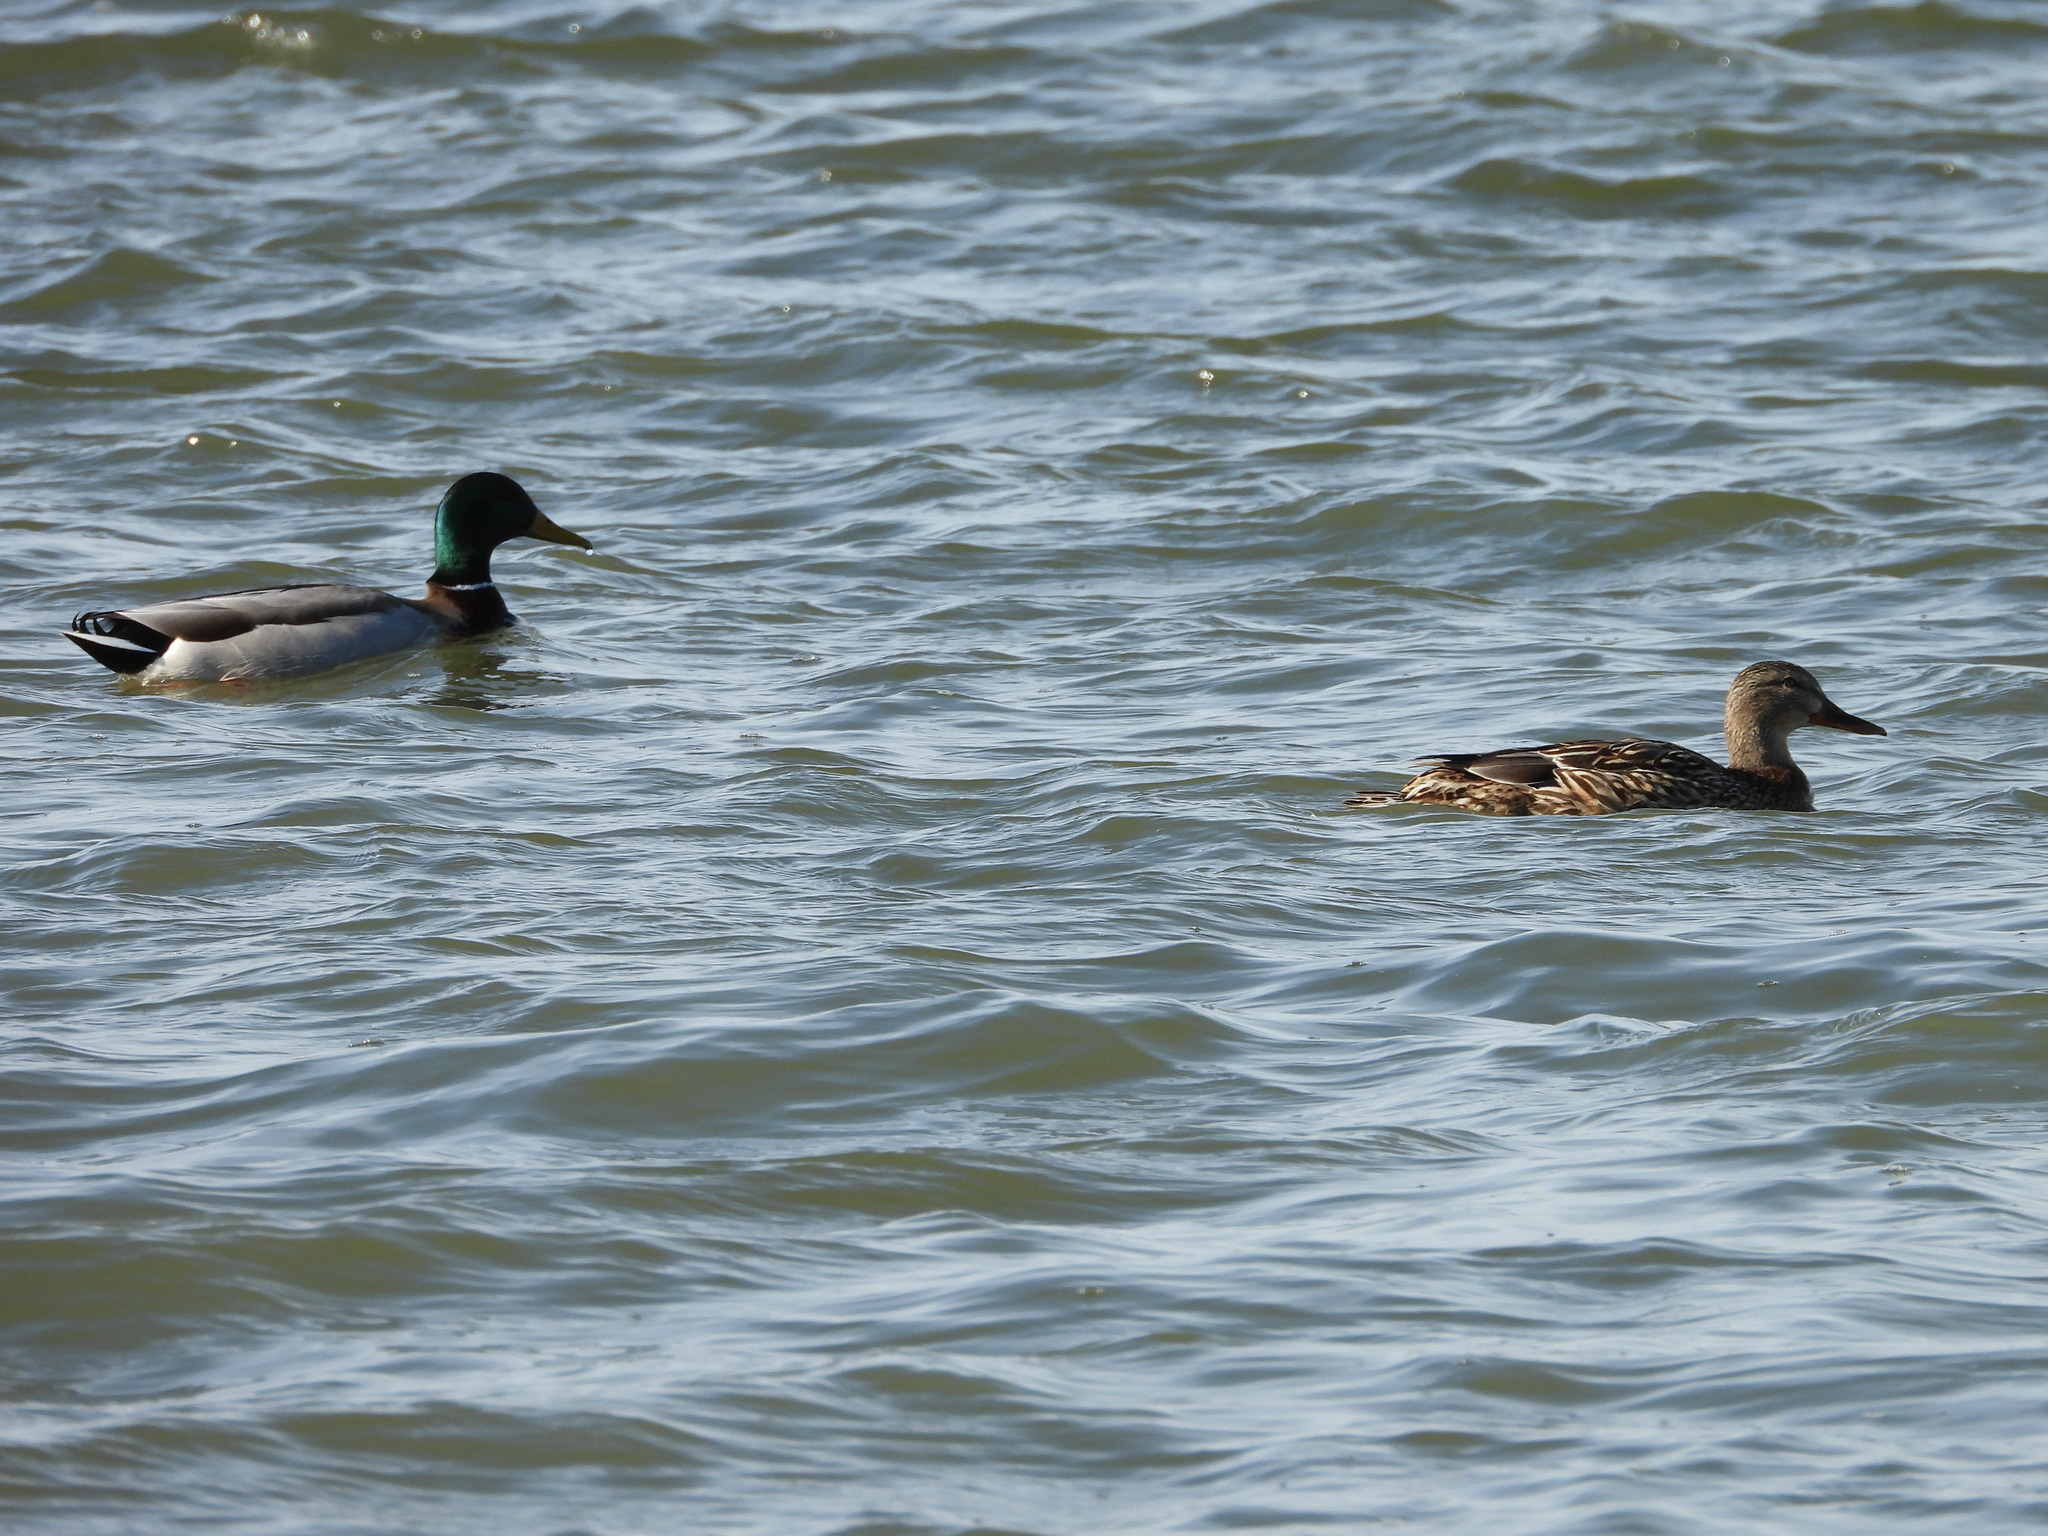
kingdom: Animalia
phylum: Chordata
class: Aves
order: Anseriformes
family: Anatidae
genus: Anas
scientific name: Anas platyrhynchos
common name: Mallard
